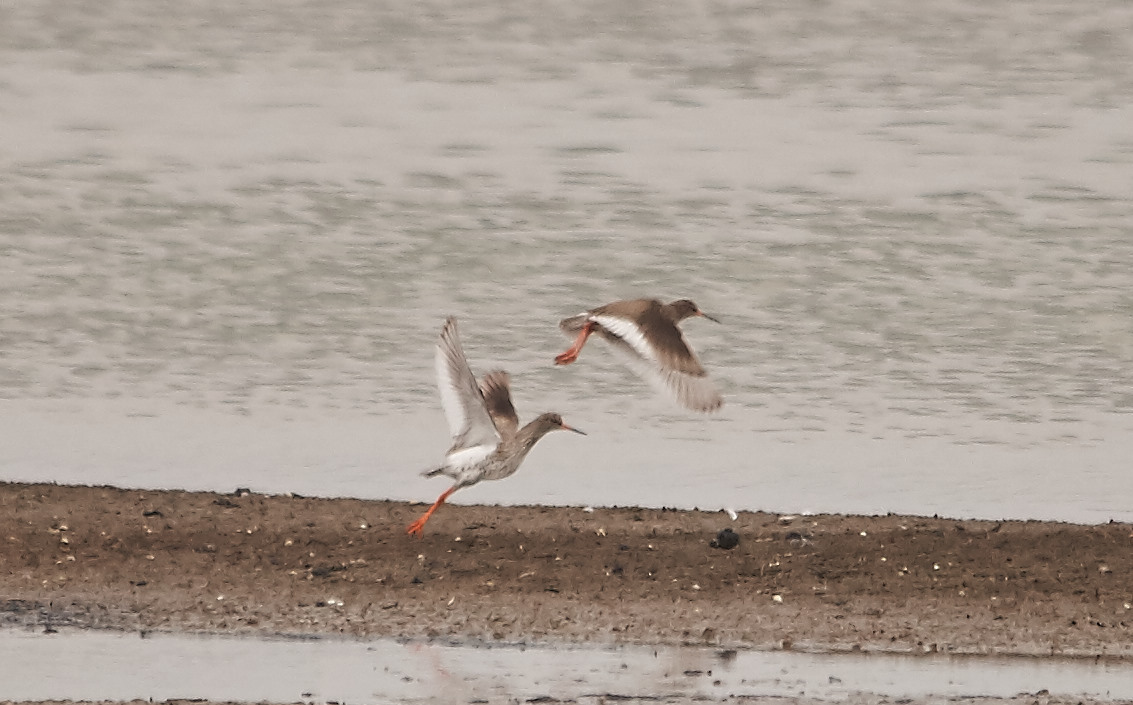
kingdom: Animalia
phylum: Chordata
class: Aves
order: Charadriiformes
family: Scolopacidae
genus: Tringa
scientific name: Tringa totanus
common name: Common redshank
